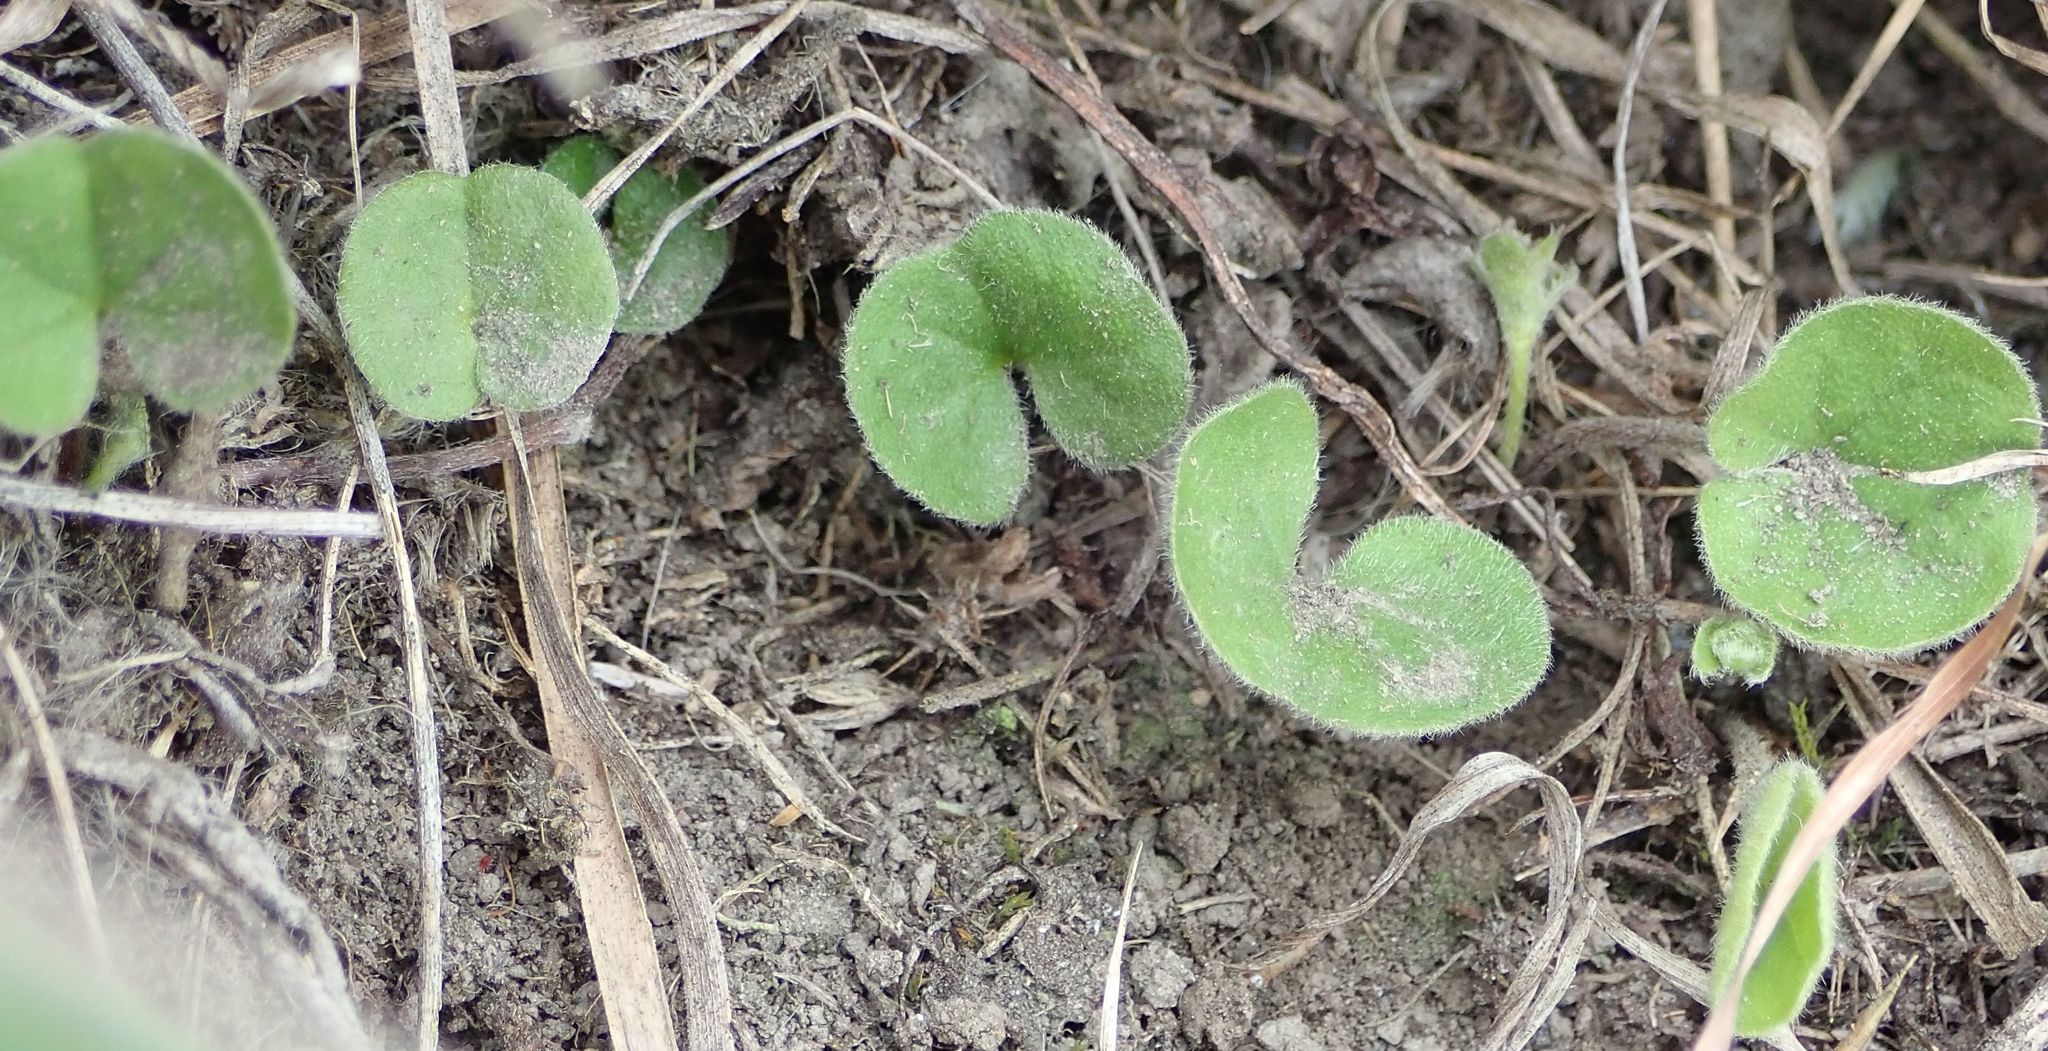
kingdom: Plantae
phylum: Tracheophyta
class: Magnoliopsida
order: Solanales
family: Convolvulaceae
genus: Dichondra
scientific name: Dichondra brevifolia
